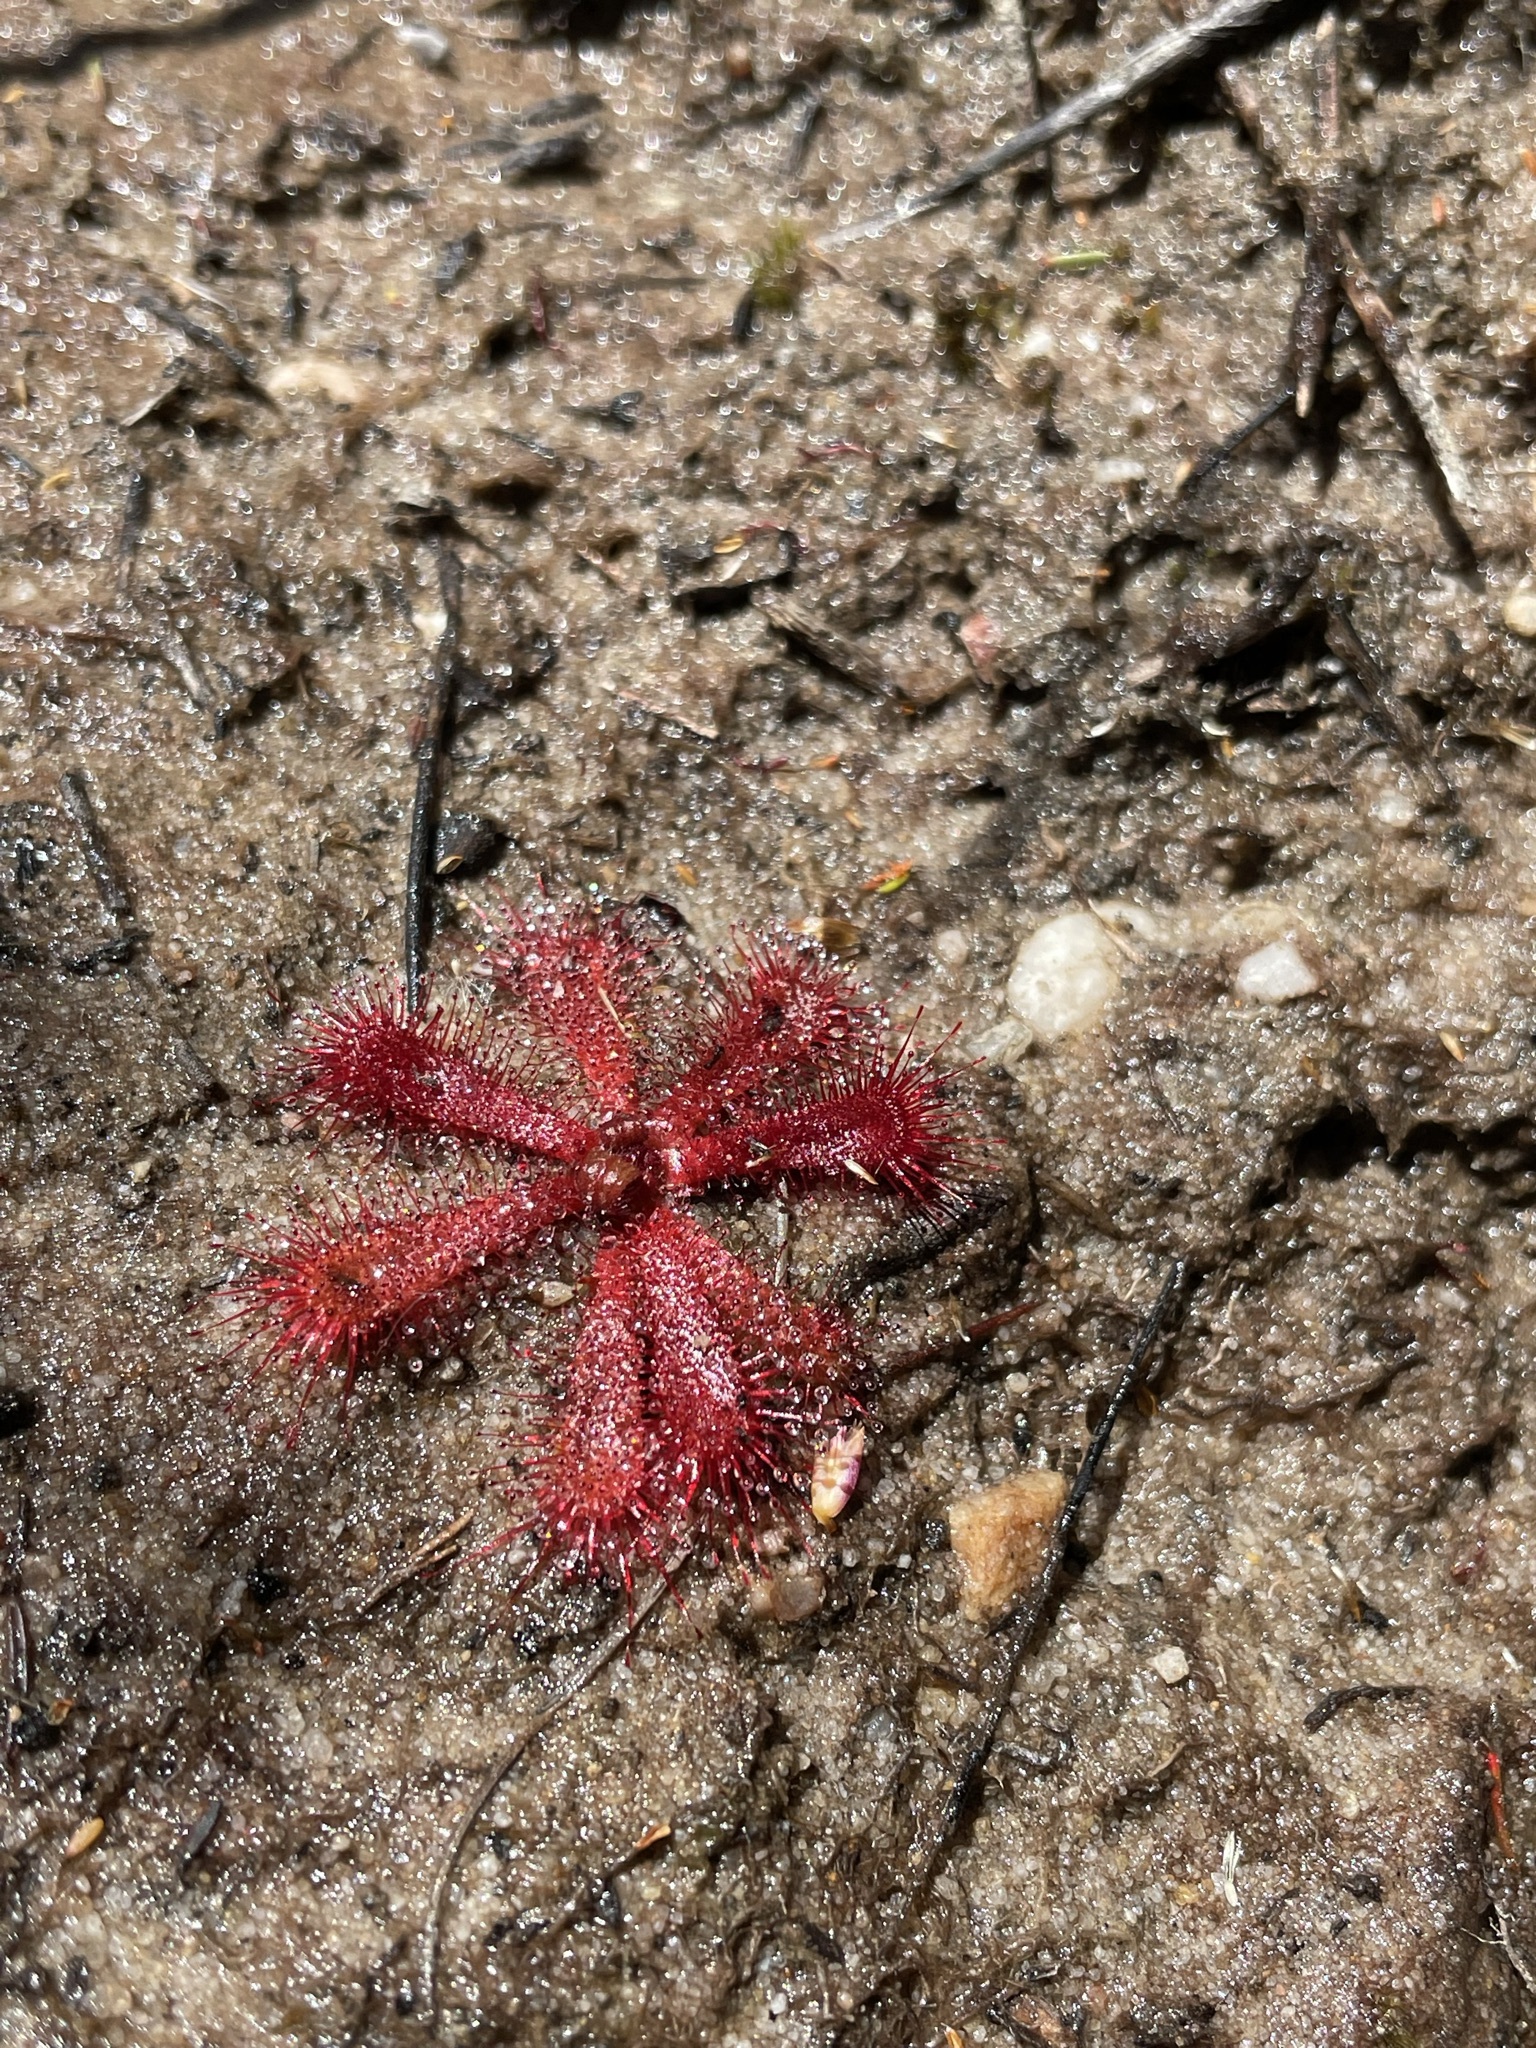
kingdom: Plantae
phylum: Tracheophyta
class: Magnoliopsida
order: Caryophyllales
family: Droseraceae
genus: Drosera
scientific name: Drosera trinervia
